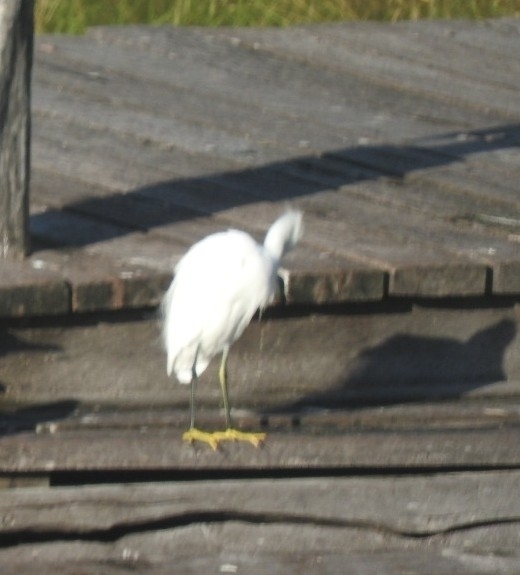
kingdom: Animalia
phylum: Chordata
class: Aves
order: Pelecaniformes
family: Ardeidae
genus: Egretta
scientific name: Egretta thula
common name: Snowy egret
